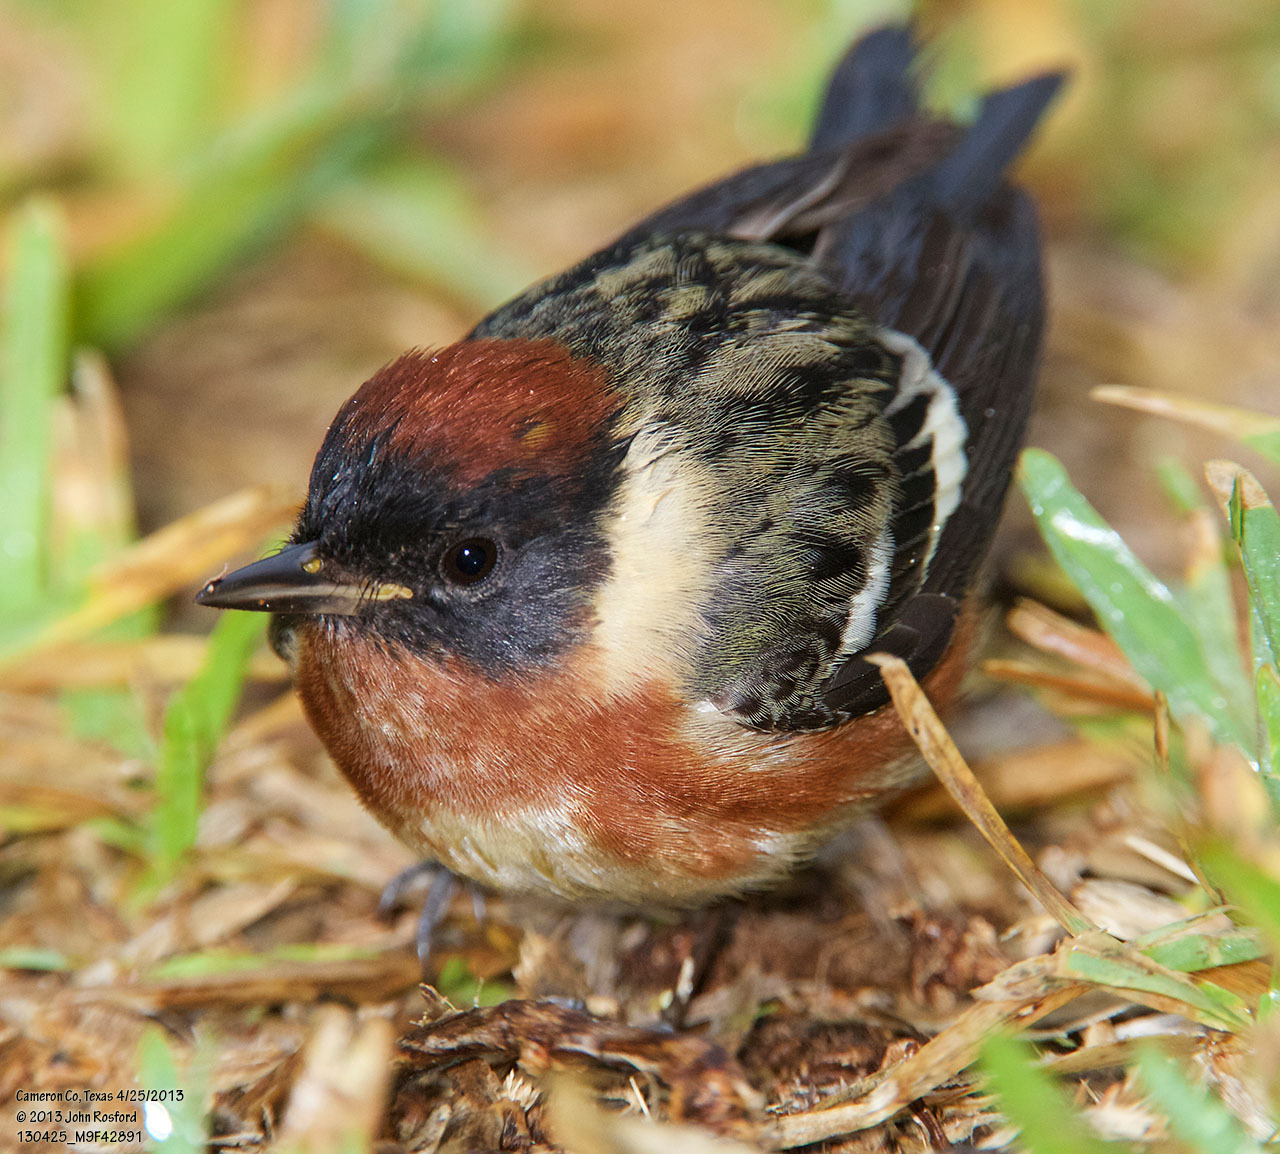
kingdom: Animalia
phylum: Chordata
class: Aves
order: Passeriformes
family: Parulidae
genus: Setophaga
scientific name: Setophaga castanea
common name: Bay-breasted warbler
